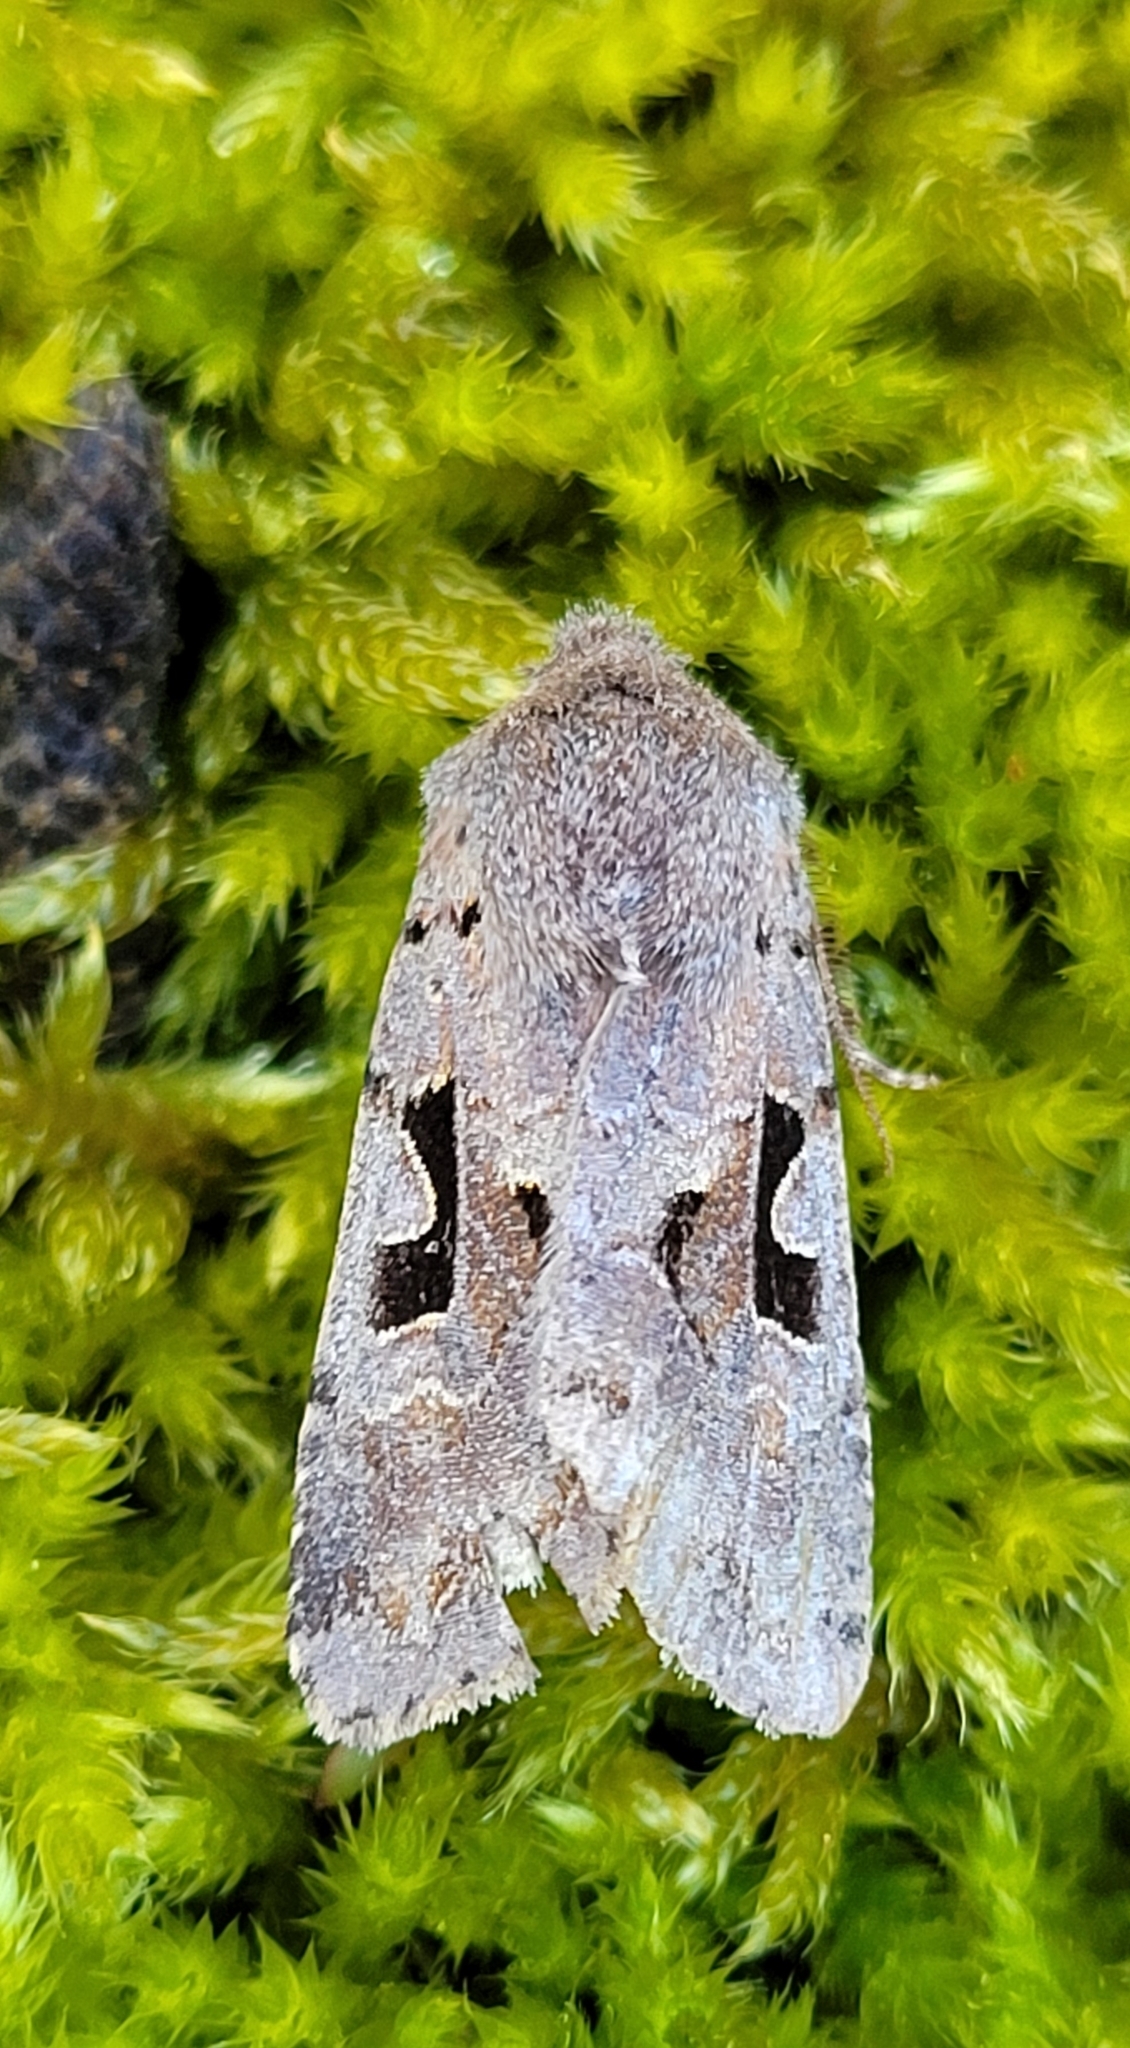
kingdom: Animalia
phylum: Arthropoda
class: Insecta
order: Lepidoptera
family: Noctuidae
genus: Orthosia
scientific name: Orthosia gothica
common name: Hebrew character
